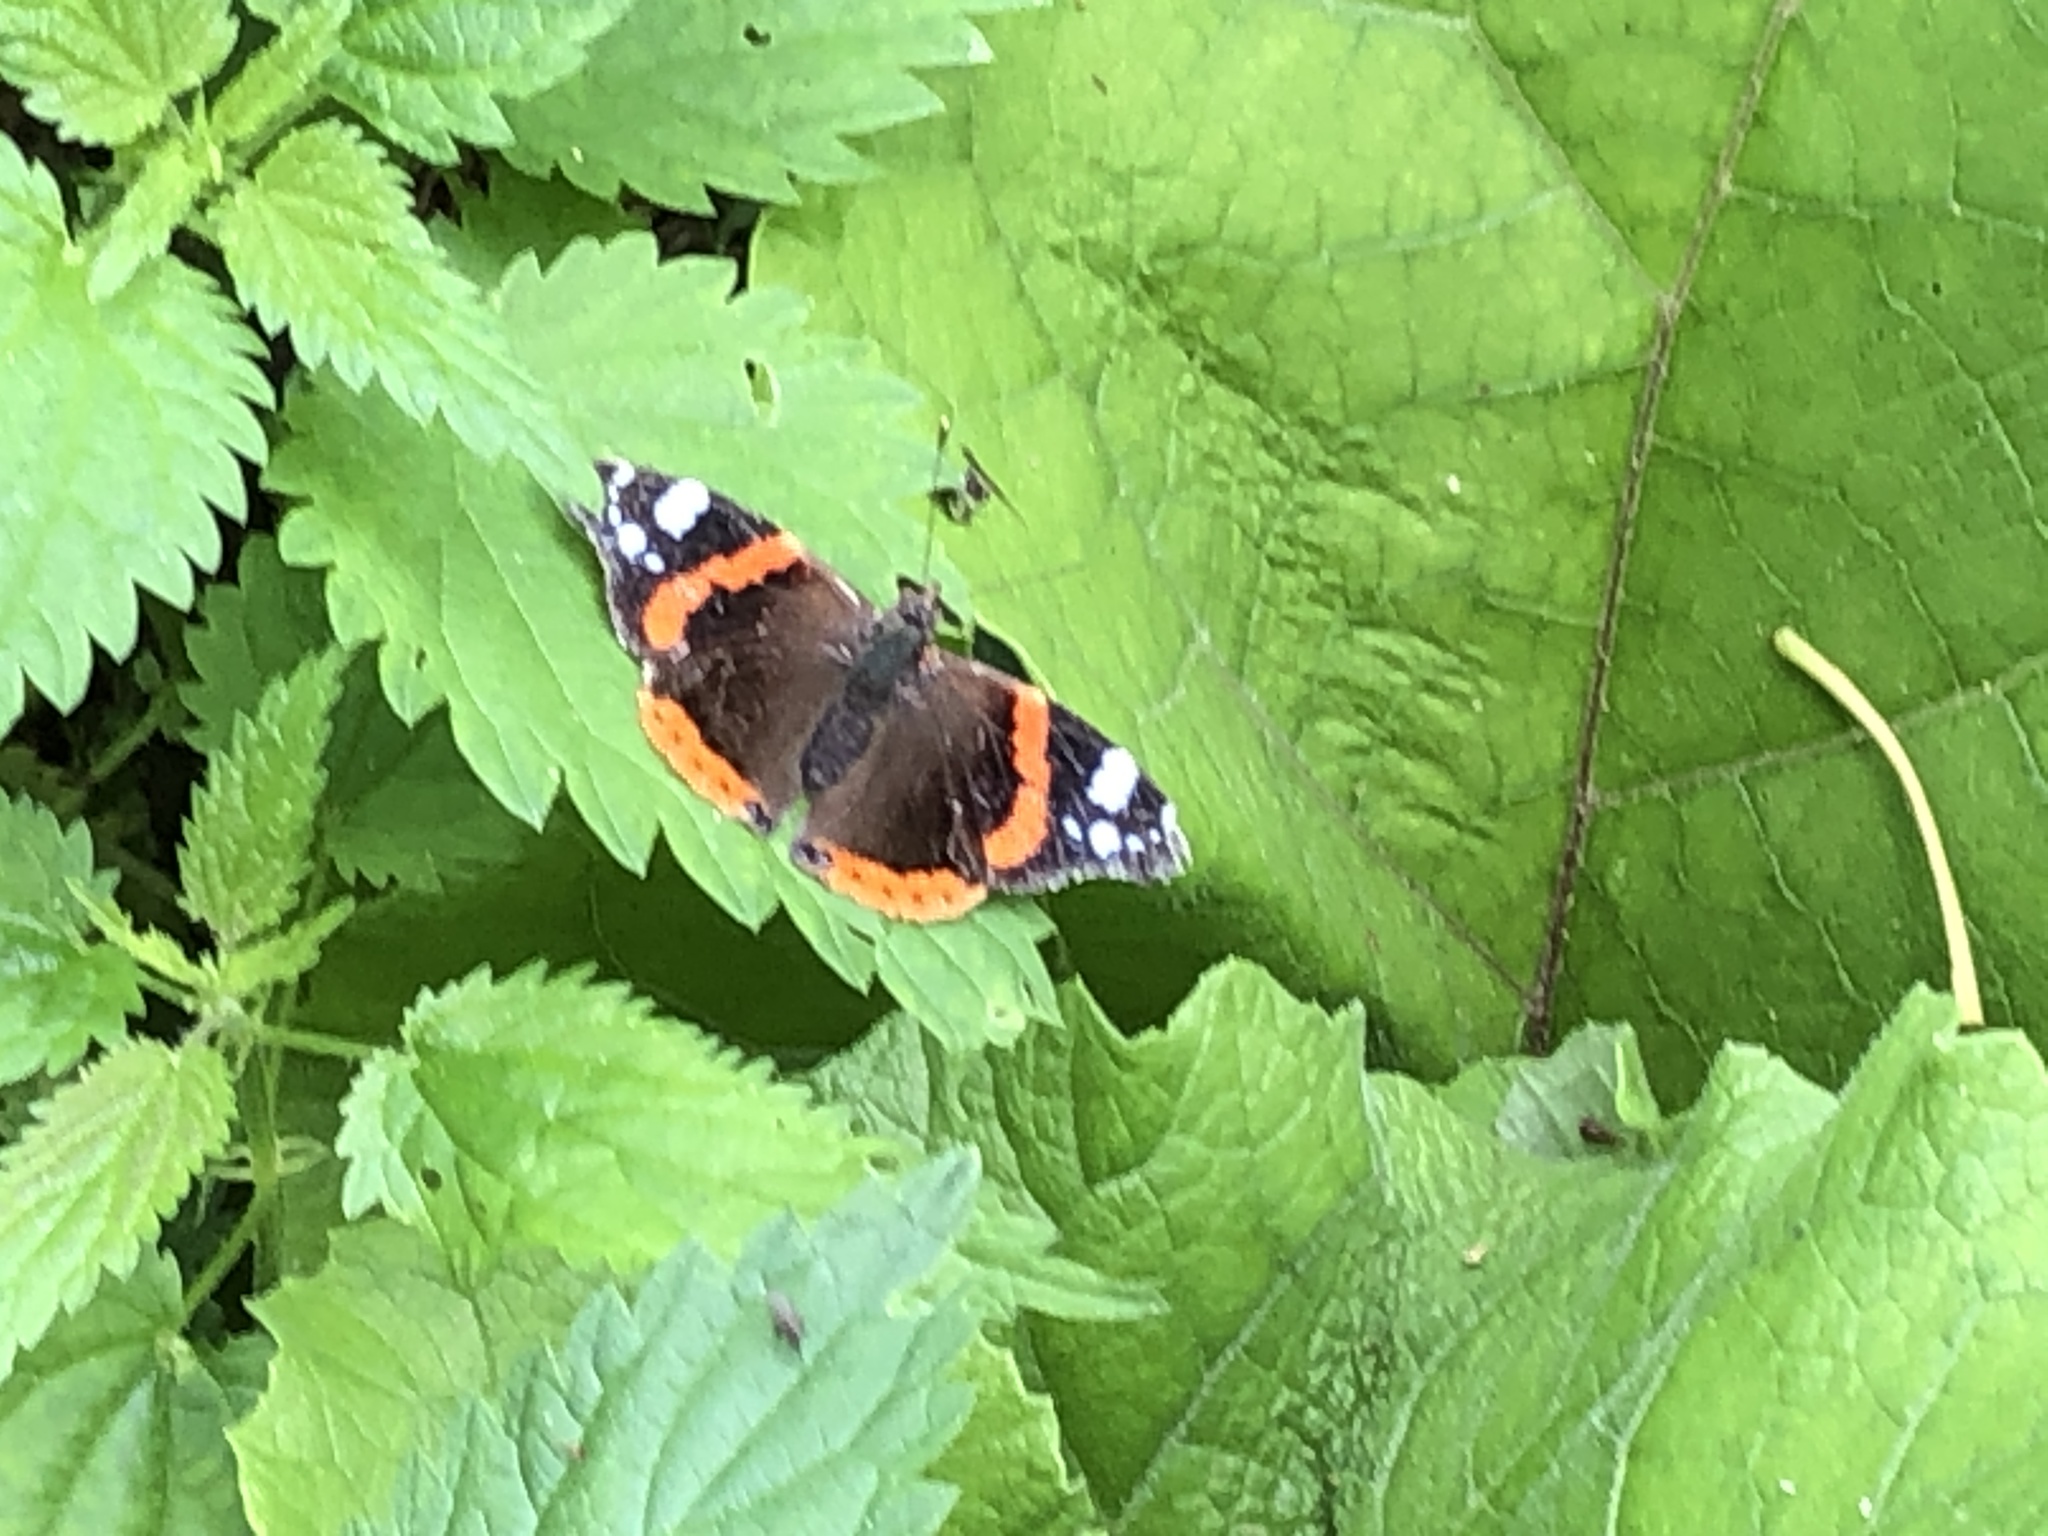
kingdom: Animalia
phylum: Arthropoda
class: Insecta
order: Lepidoptera
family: Nymphalidae
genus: Vanessa
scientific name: Vanessa atalanta
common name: Red admiral
